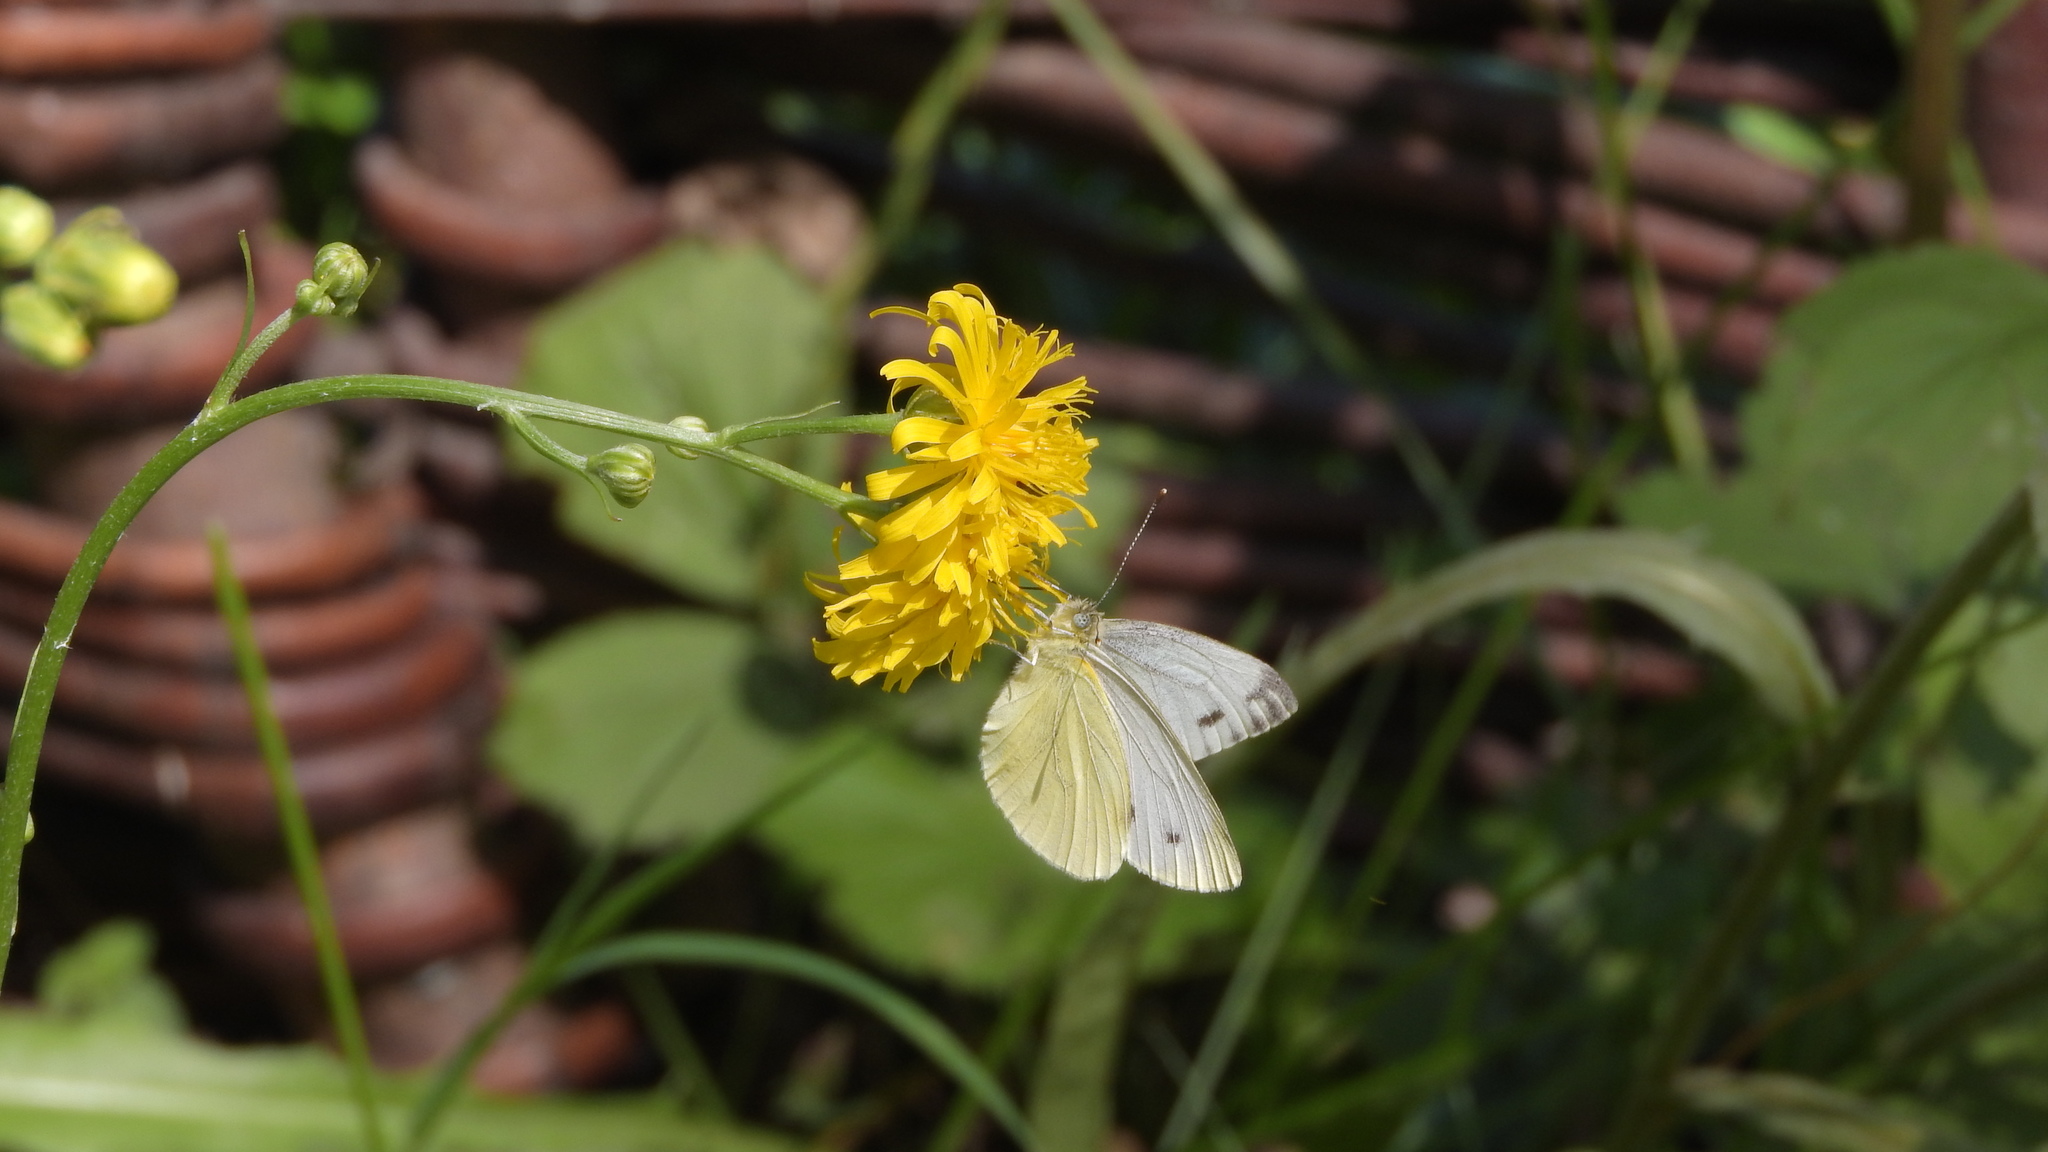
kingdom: Animalia
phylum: Arthropoda
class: Insecta
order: Lepidoptera
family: Pieridae
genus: Pieris
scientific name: Pieris napi
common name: Green-veined white
